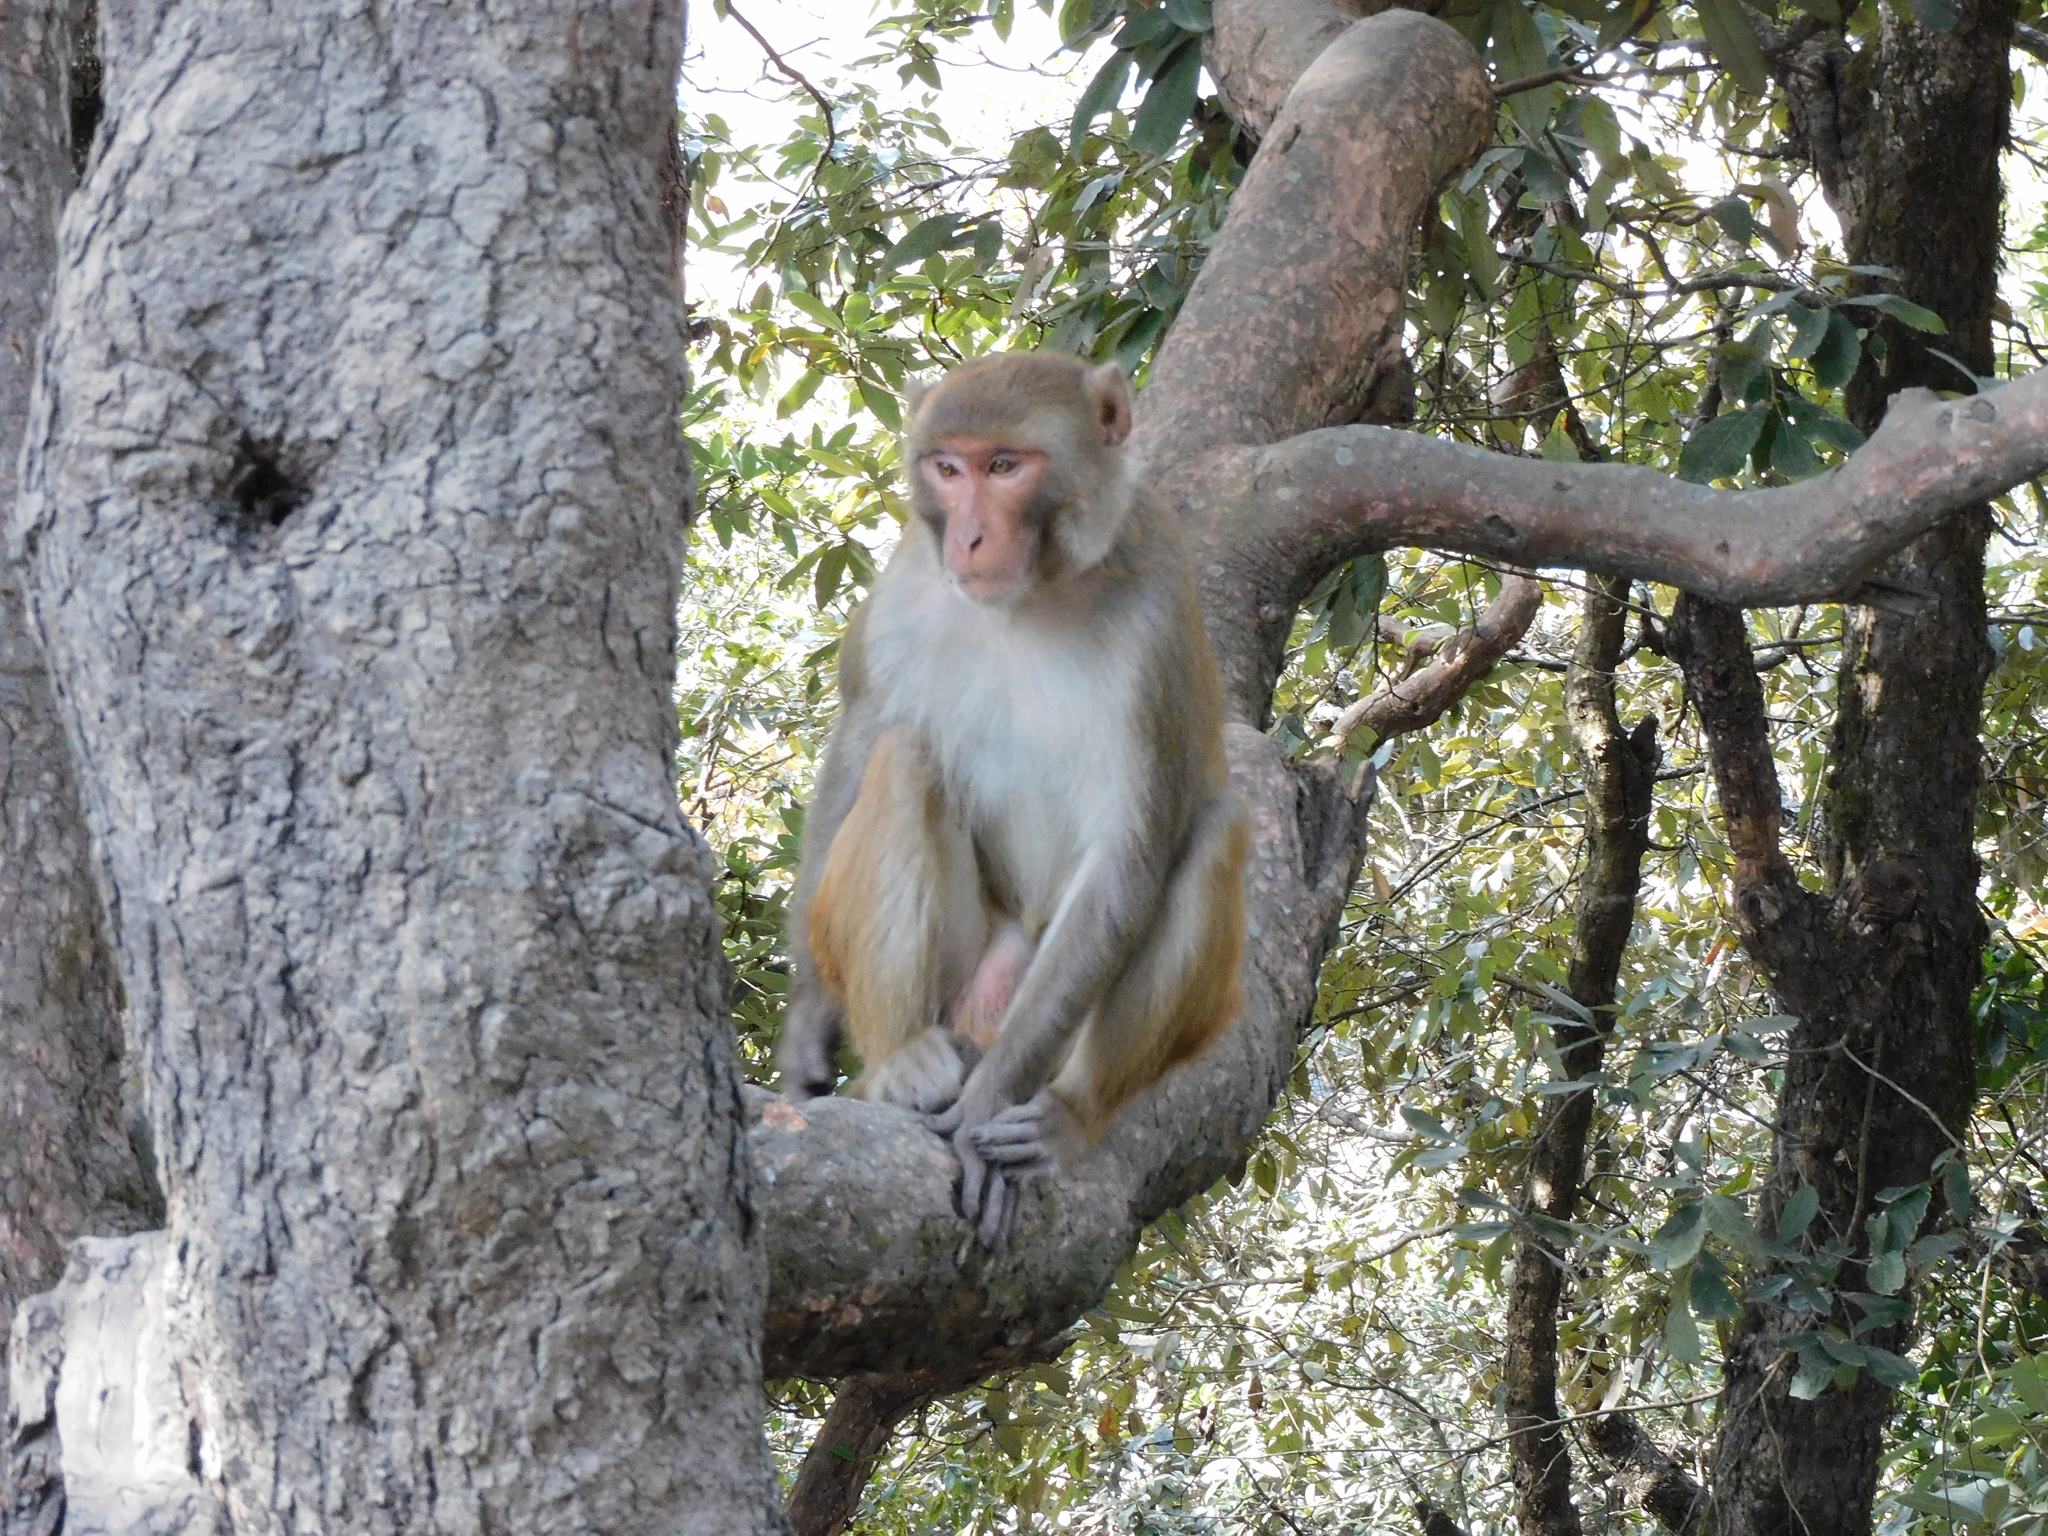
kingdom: Animalia
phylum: Chordata
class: Mammalia
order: Primates
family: Cercopithecidae
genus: Macaca
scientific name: Macaca mulatta
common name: Rhesus monkey
